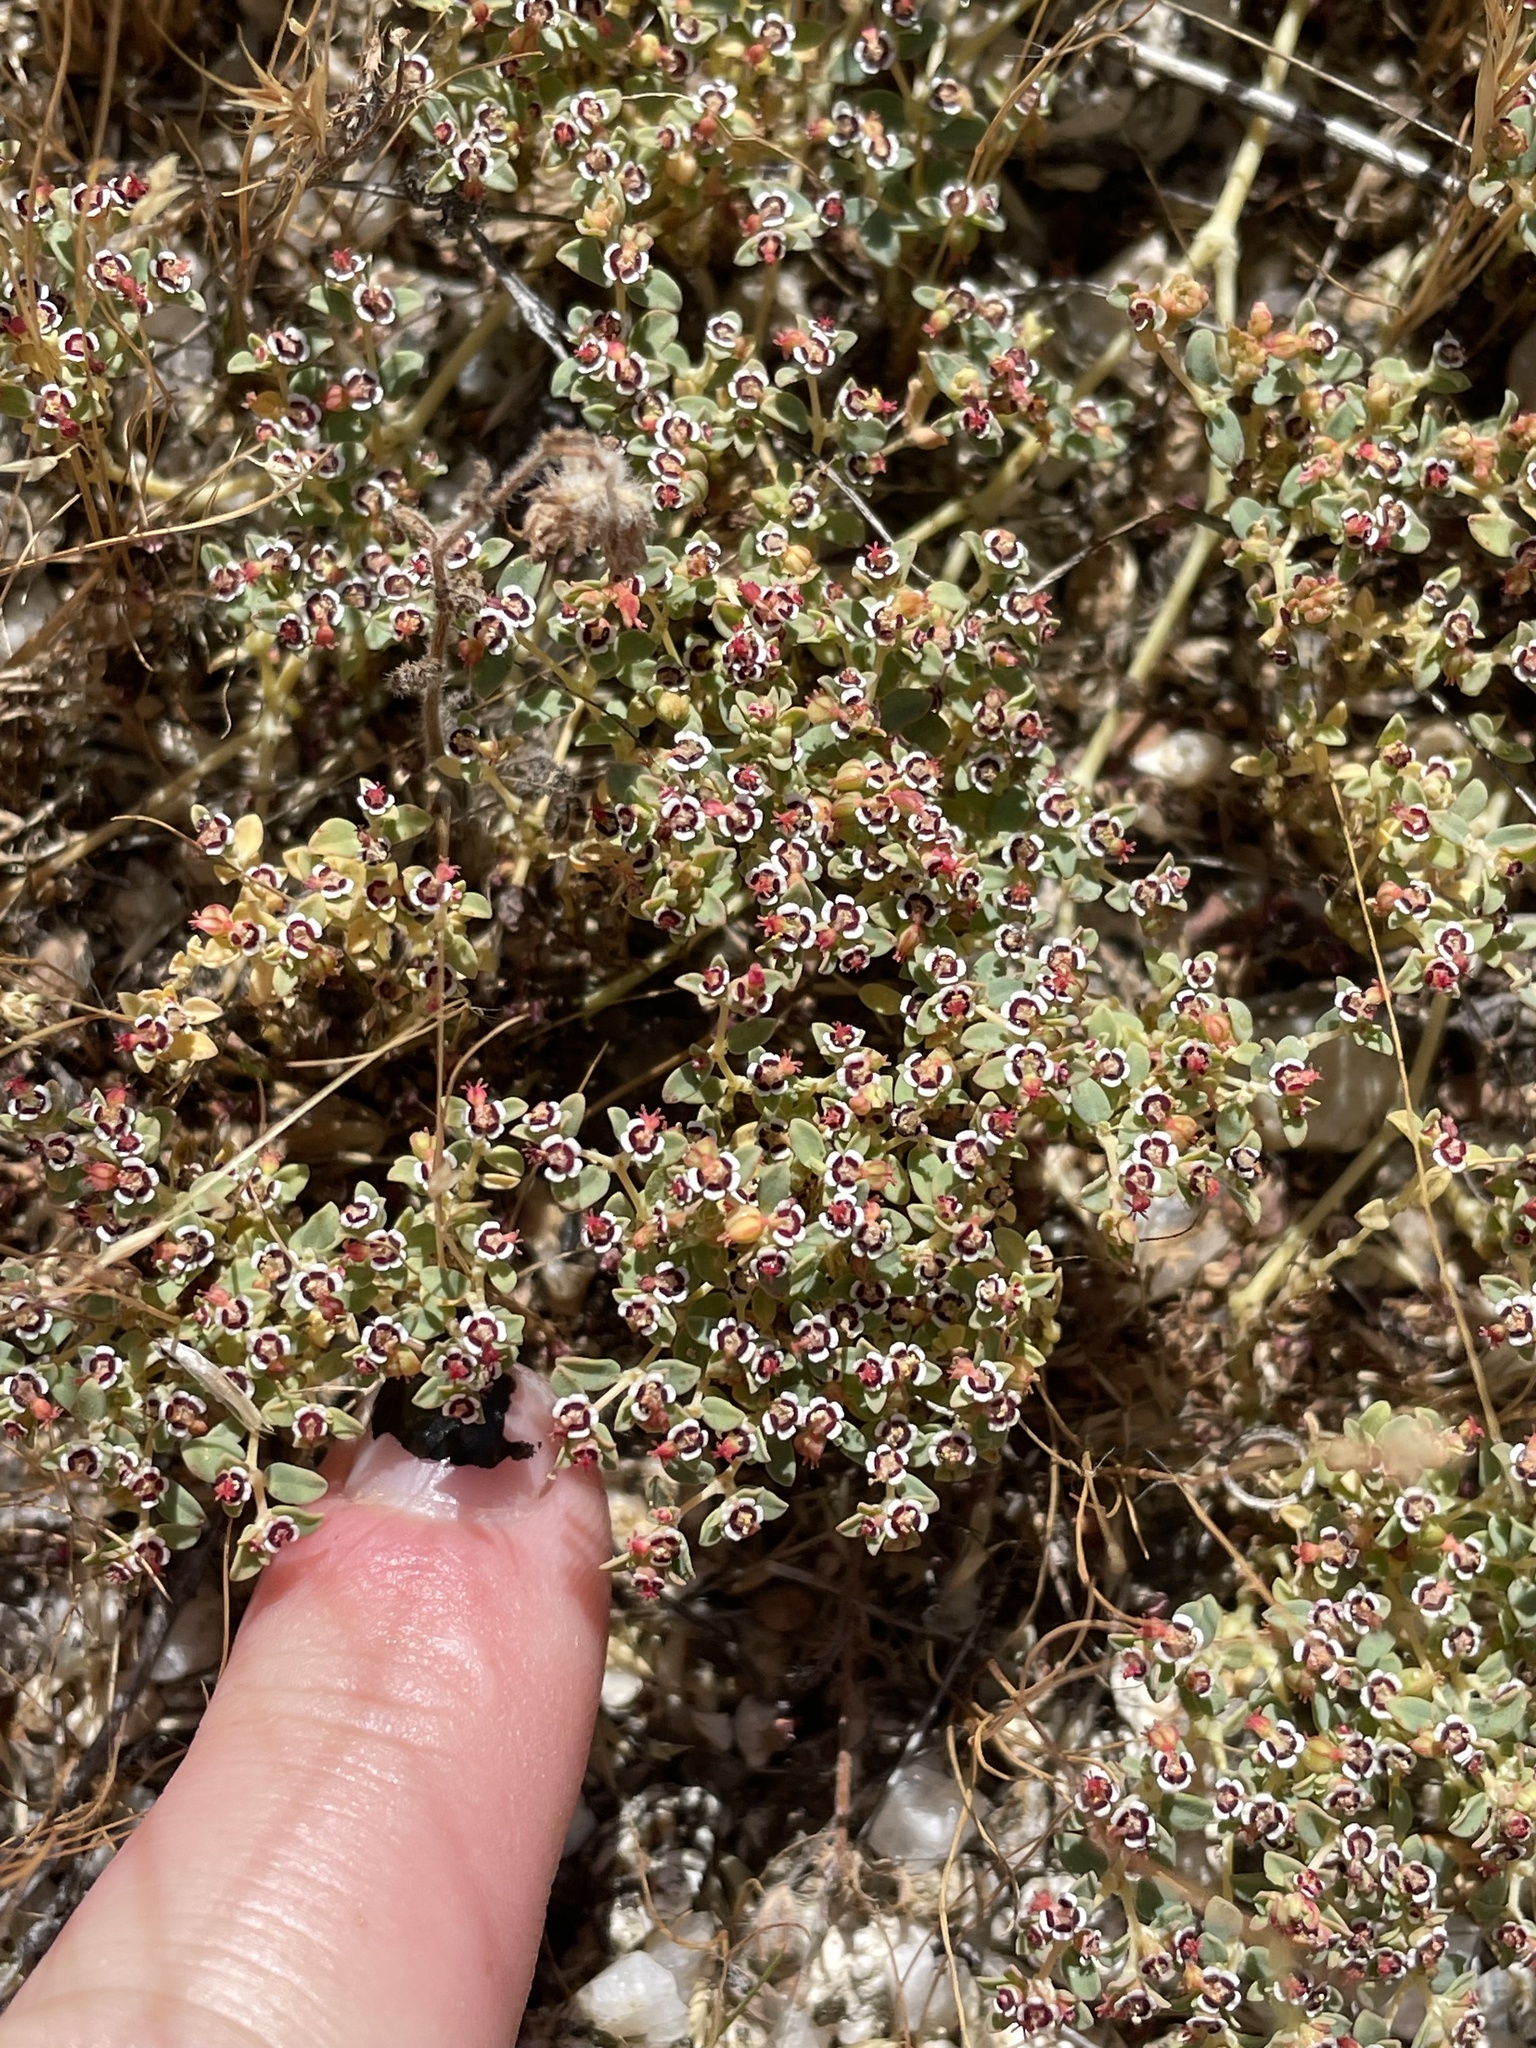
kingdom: Plantae
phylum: Tracheophyta
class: Magnoliopsida
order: Malpighiales
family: Euphorbiaceae
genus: Euphorbia
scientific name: Euphorbia polycarpa
